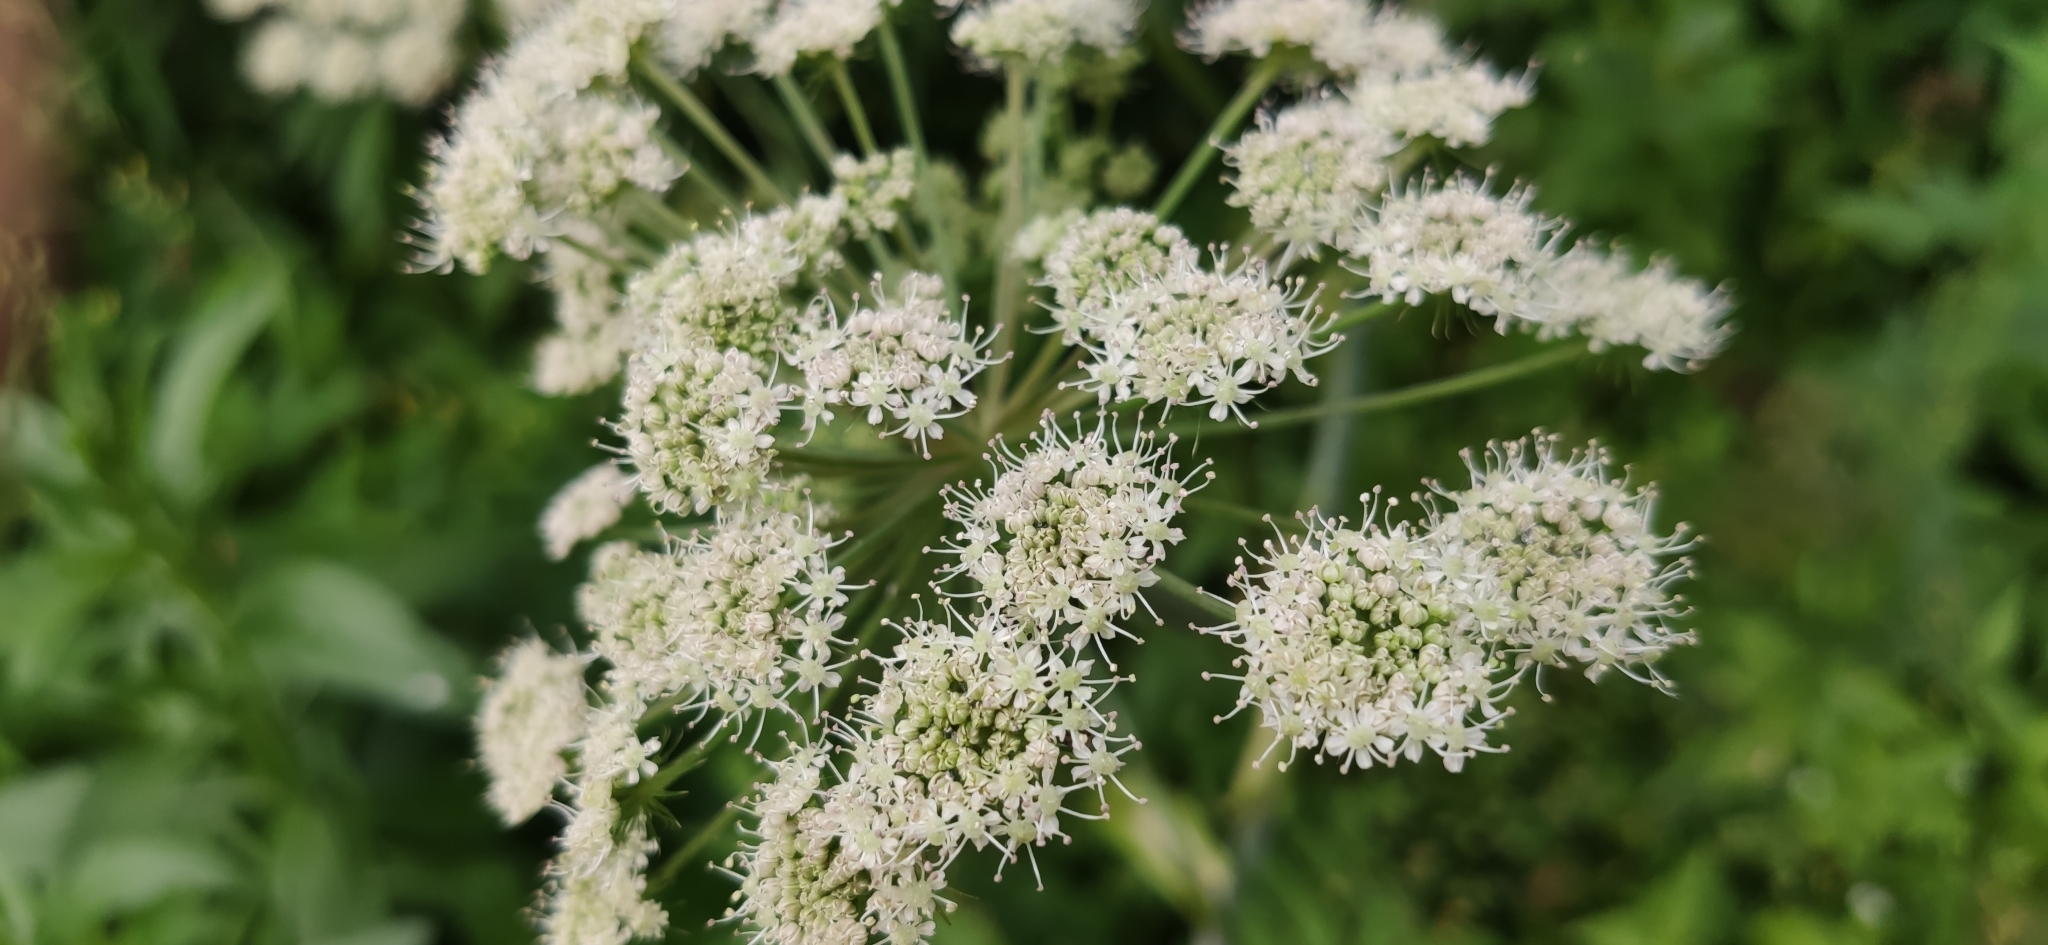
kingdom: Plantae
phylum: Tracheophyta
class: Magnoliopsida
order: Apiales
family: Apiaceae
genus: Angelica
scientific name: Angelica sylvestris
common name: Wild angelica
